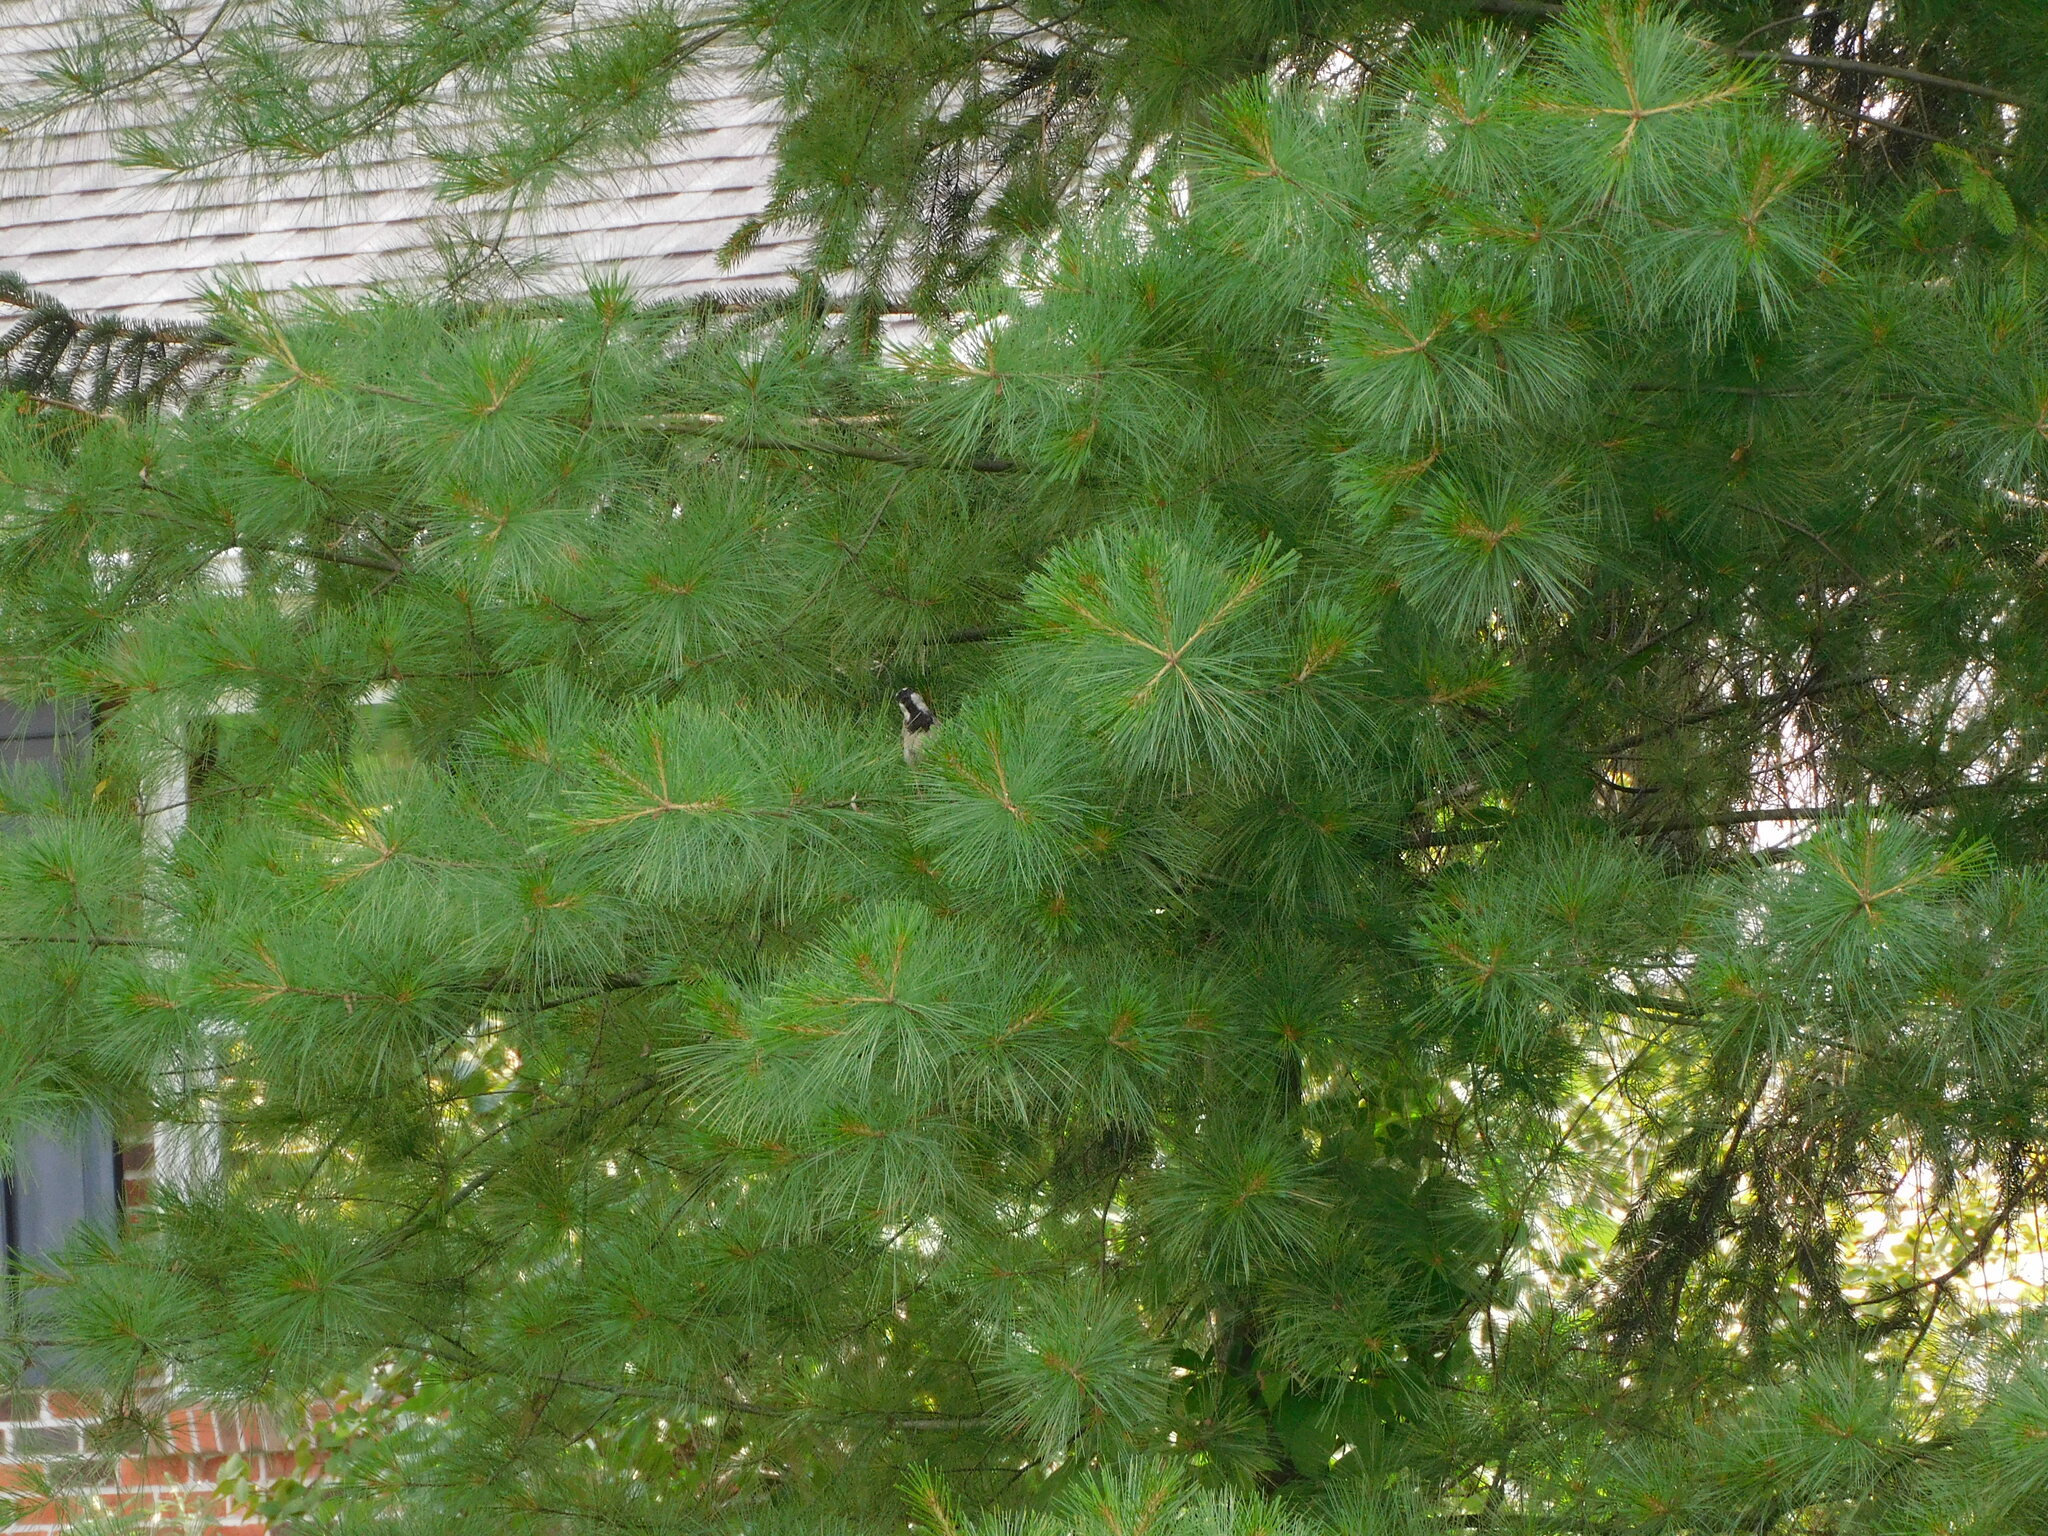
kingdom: Animalia
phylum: Chordata
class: Aves
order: Passeriformes
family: Passeridae
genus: Passer
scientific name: Passer domesticus
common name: House sparrow
